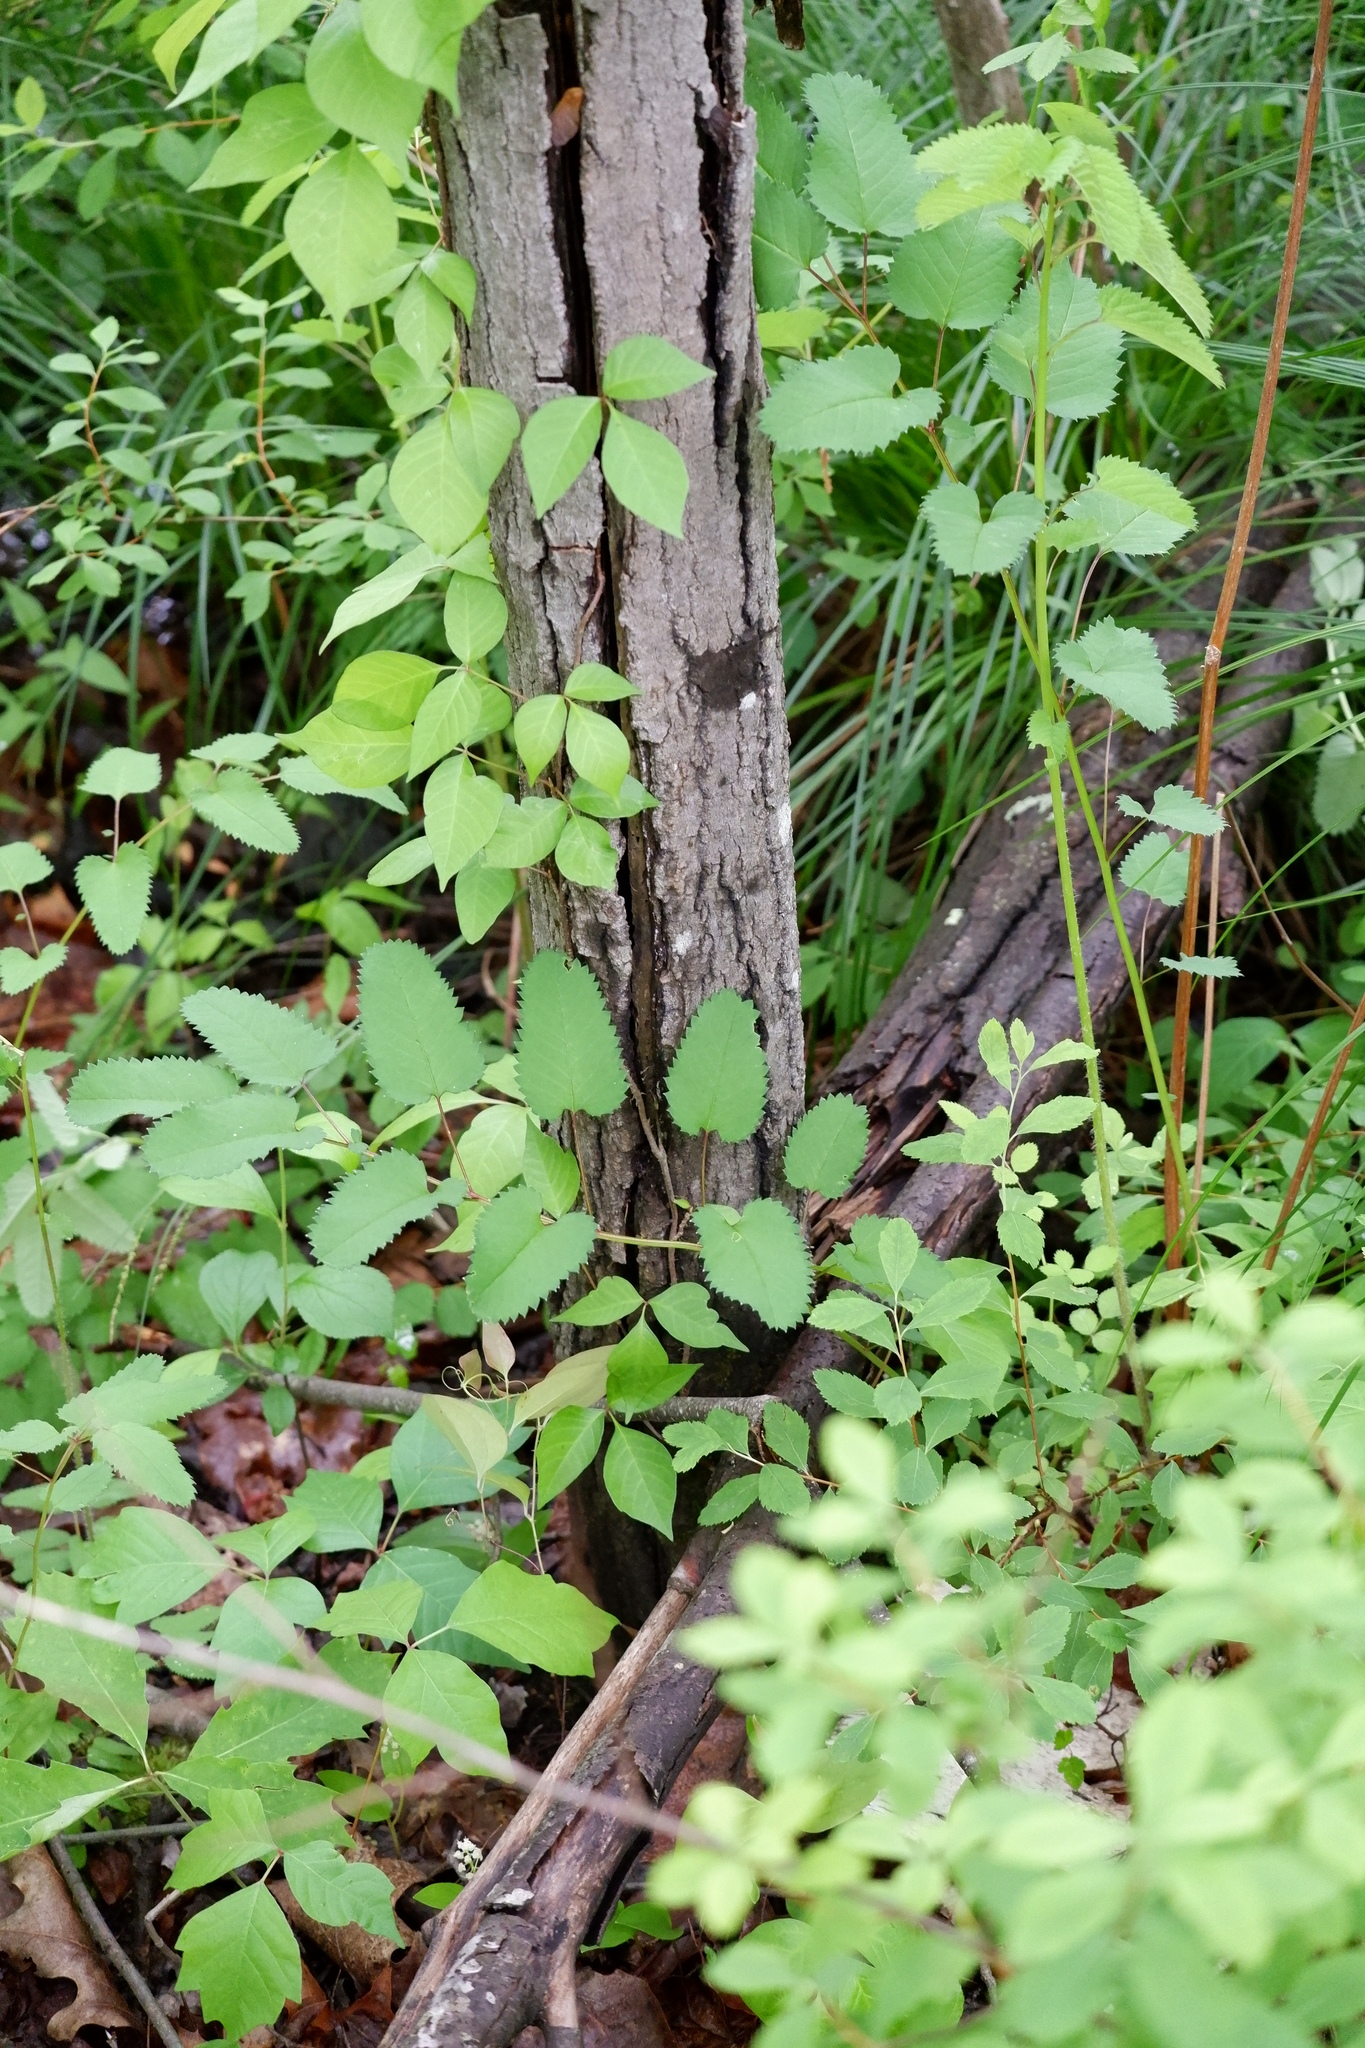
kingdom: Plantae
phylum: Tracheophyta
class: Magnoliopsida
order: Rosales
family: Rosaceae
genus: Sanguisorba
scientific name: Sanguisorba canadensis
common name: White burnet
